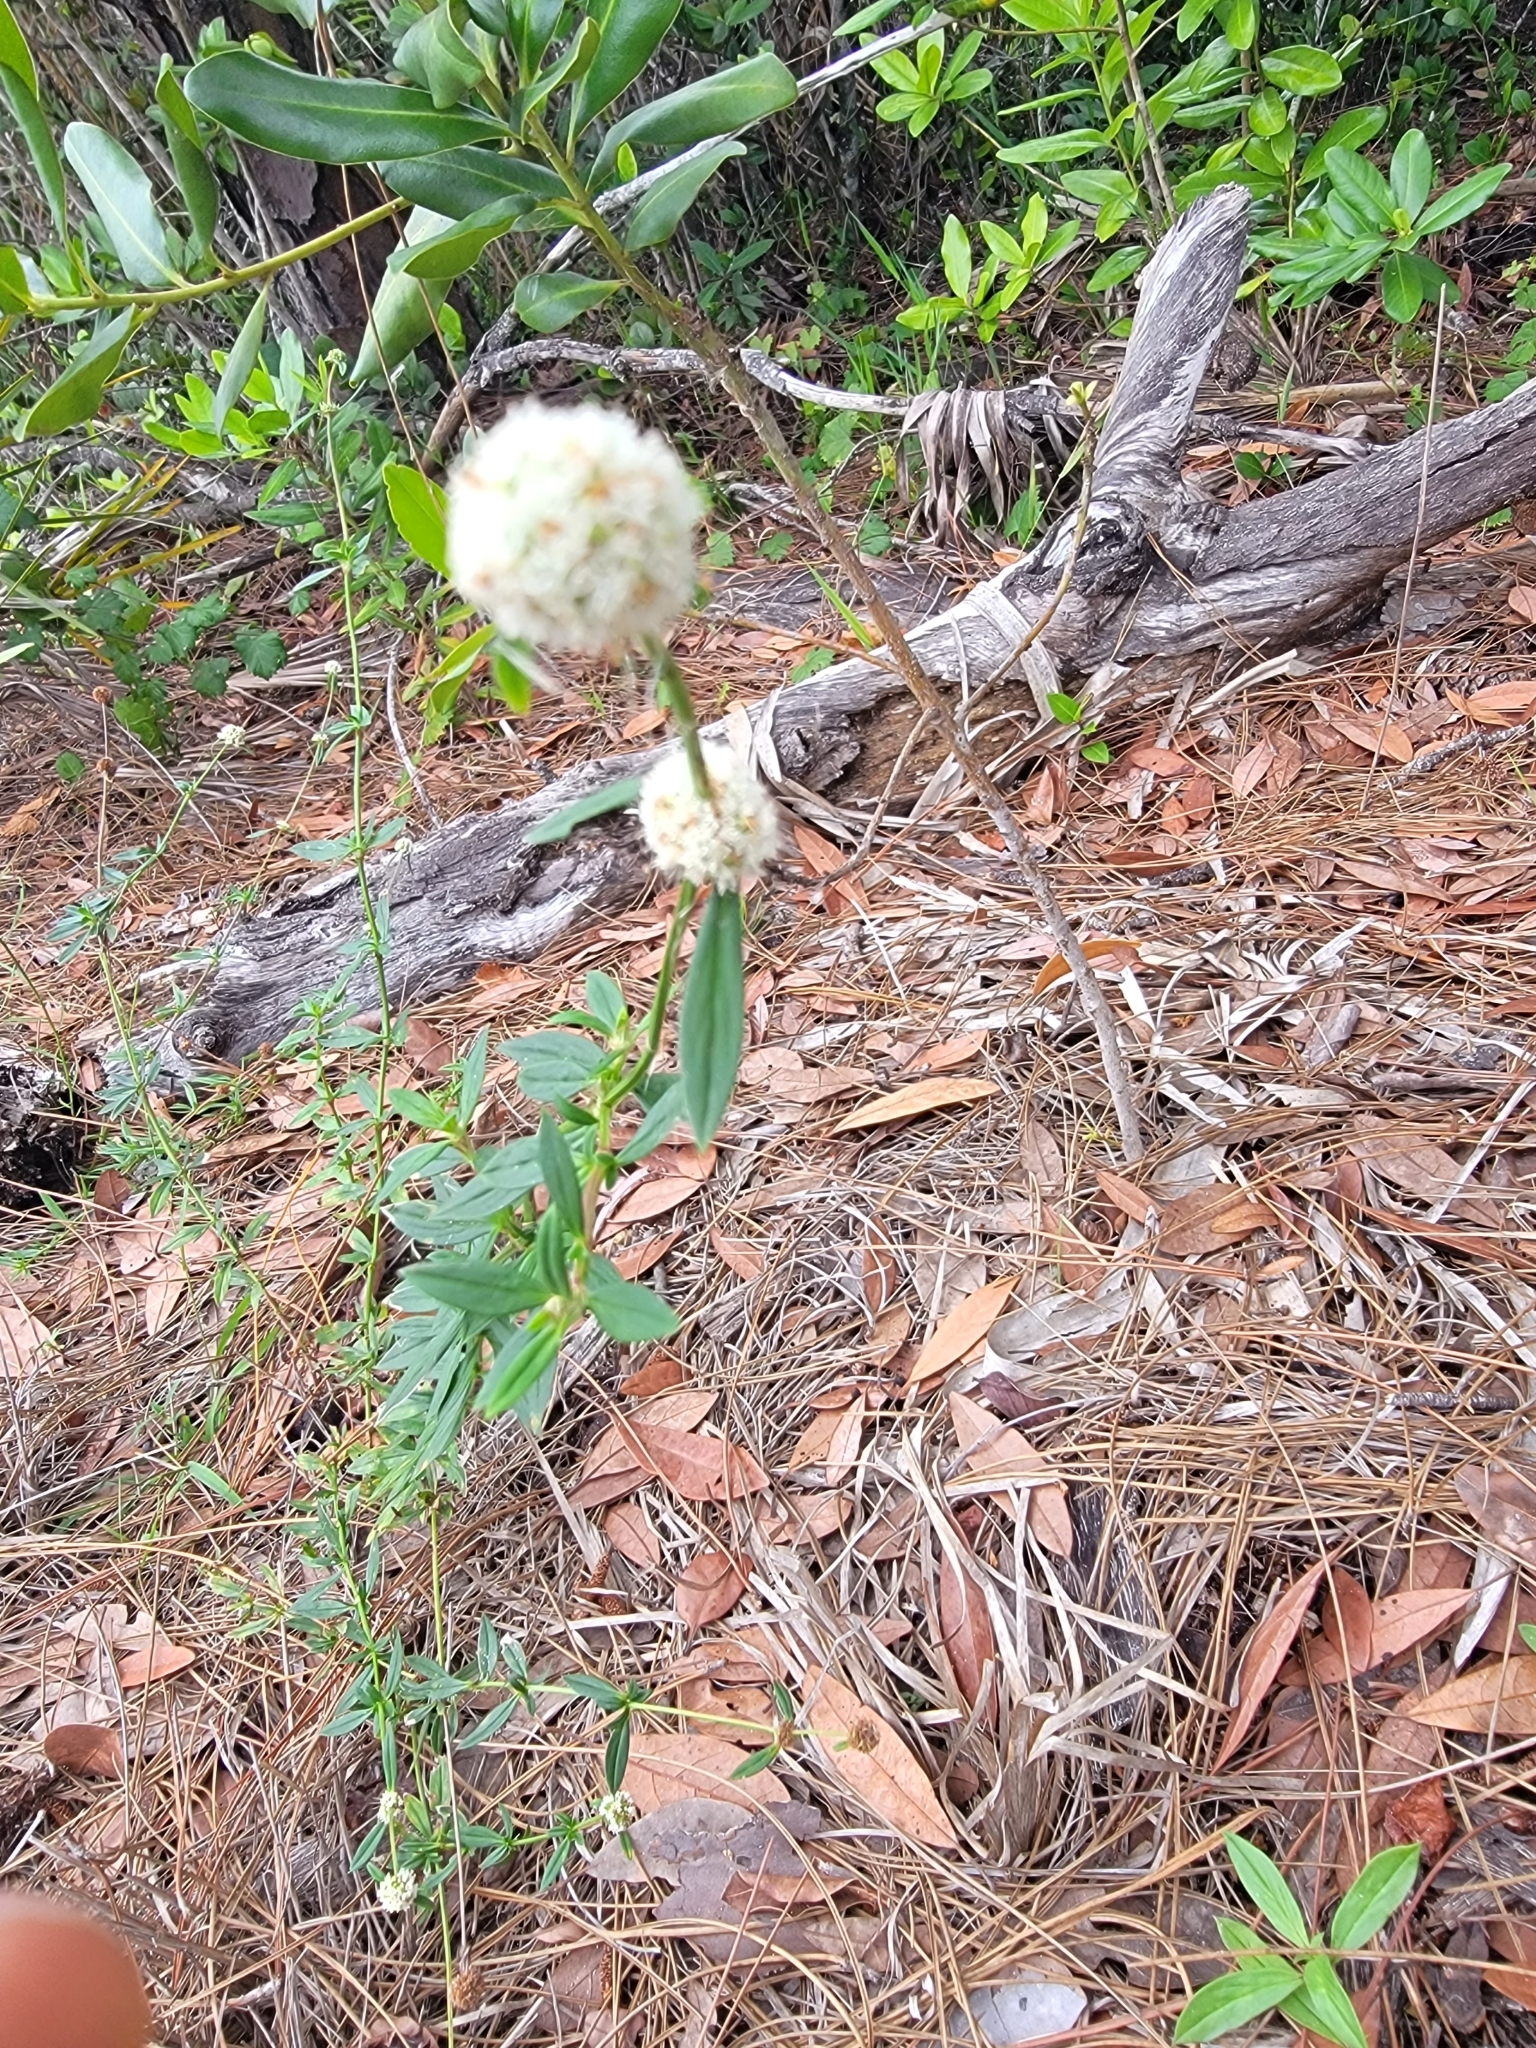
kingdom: Plantae
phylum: Tracheophyta
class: Magnoliopsida
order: Gentianales
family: Rubiaceae
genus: Spermacoce
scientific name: Spermacoce verticillata
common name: Shrubby false buttonweed
